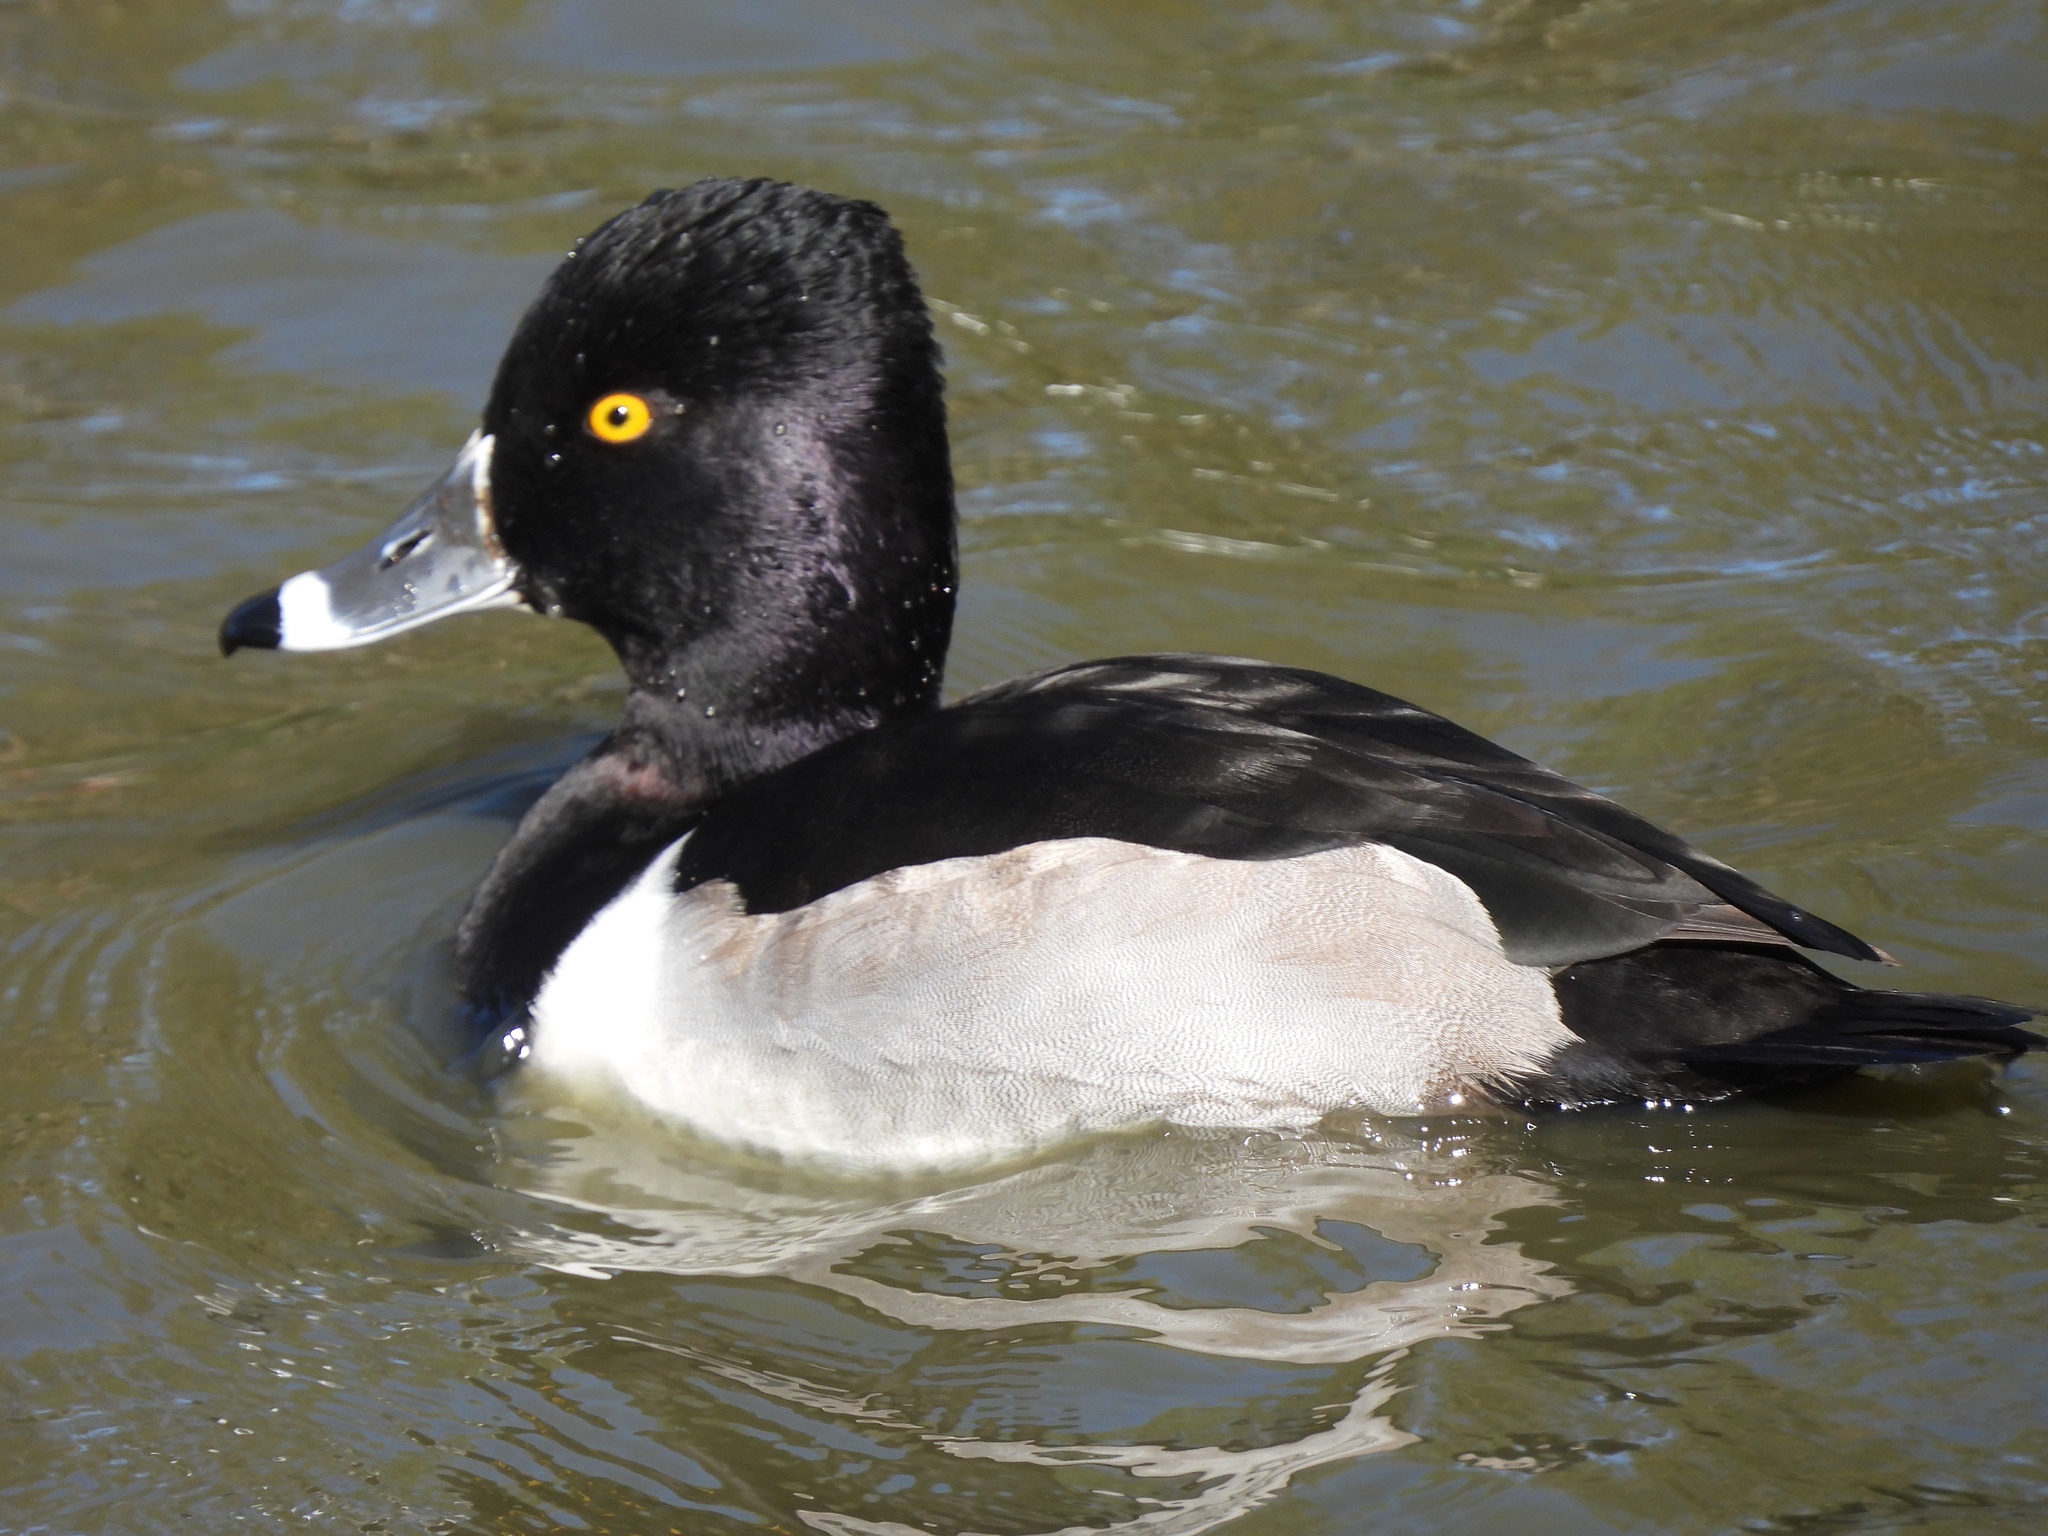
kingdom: Animalia
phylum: Chordata
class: Aves
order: Anseriformes
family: Anatidae
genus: Aythya
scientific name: Aythya collaris
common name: Ring-necked duck
